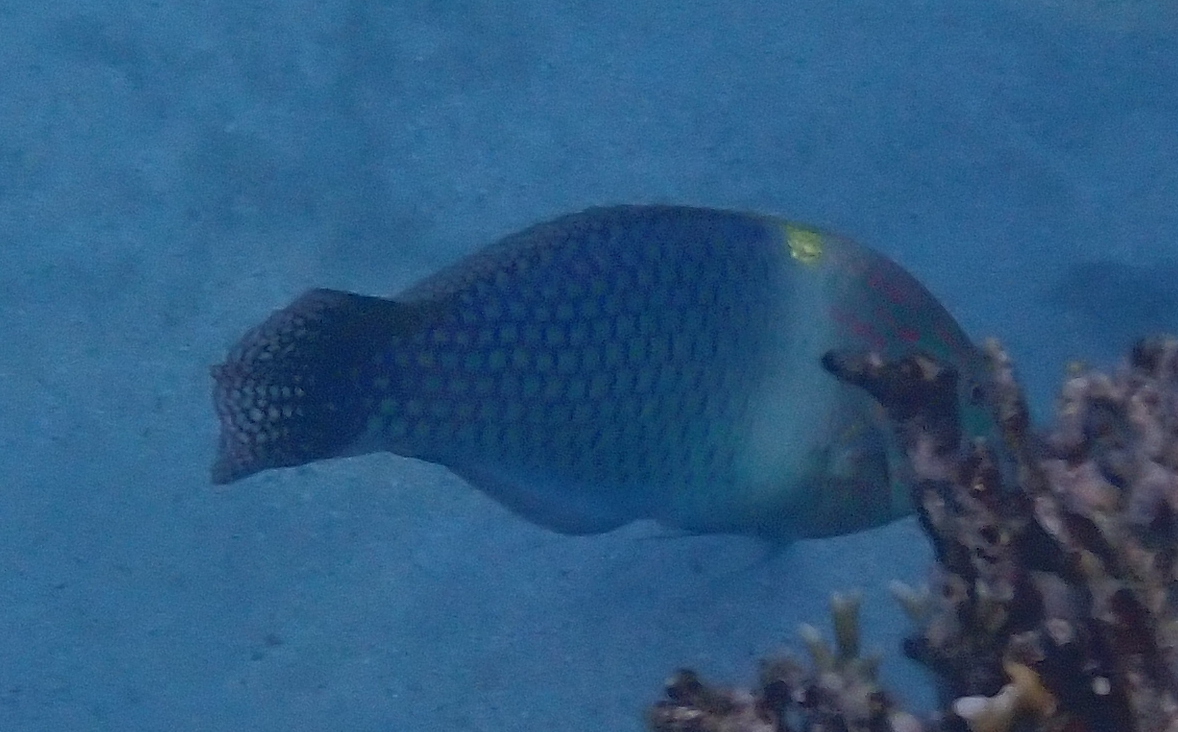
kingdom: Animalia
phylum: Chordata
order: Perciformes
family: Labridae
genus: Halichoeres
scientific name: Halichoeres hortulanus
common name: Checkerboard wrasse
